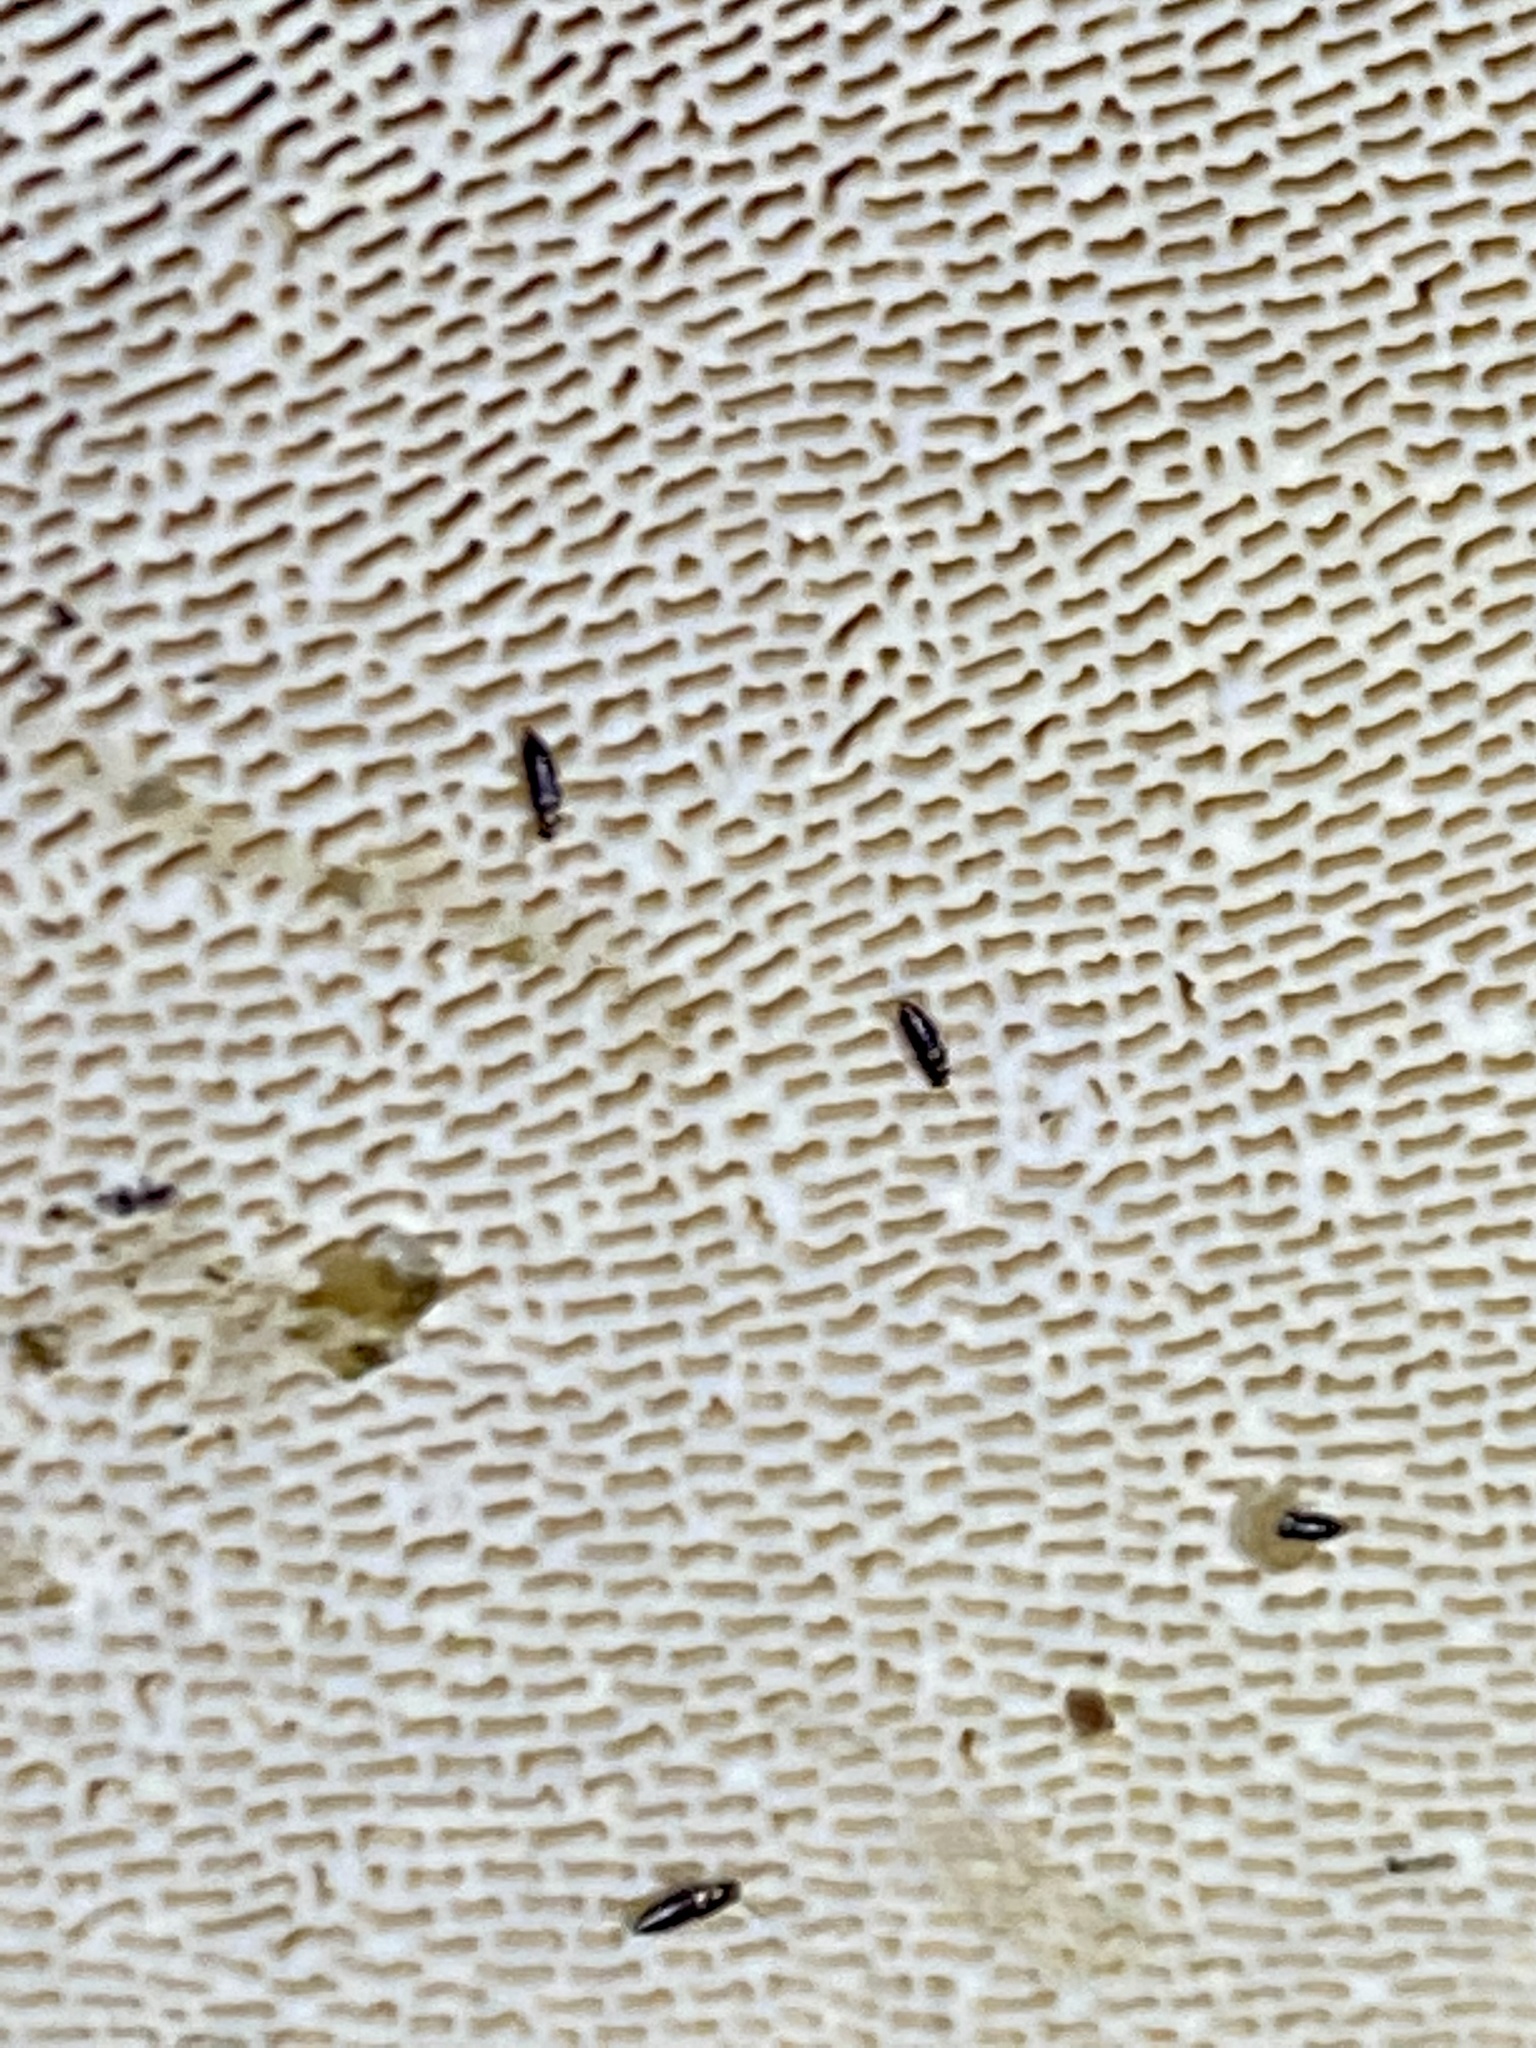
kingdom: Fungi
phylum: Basidiomycota
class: Agaricomycetes
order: Polyporales
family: Polyporaceae
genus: Trametes
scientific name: Trametes gibbosa
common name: Lumpy bracket
